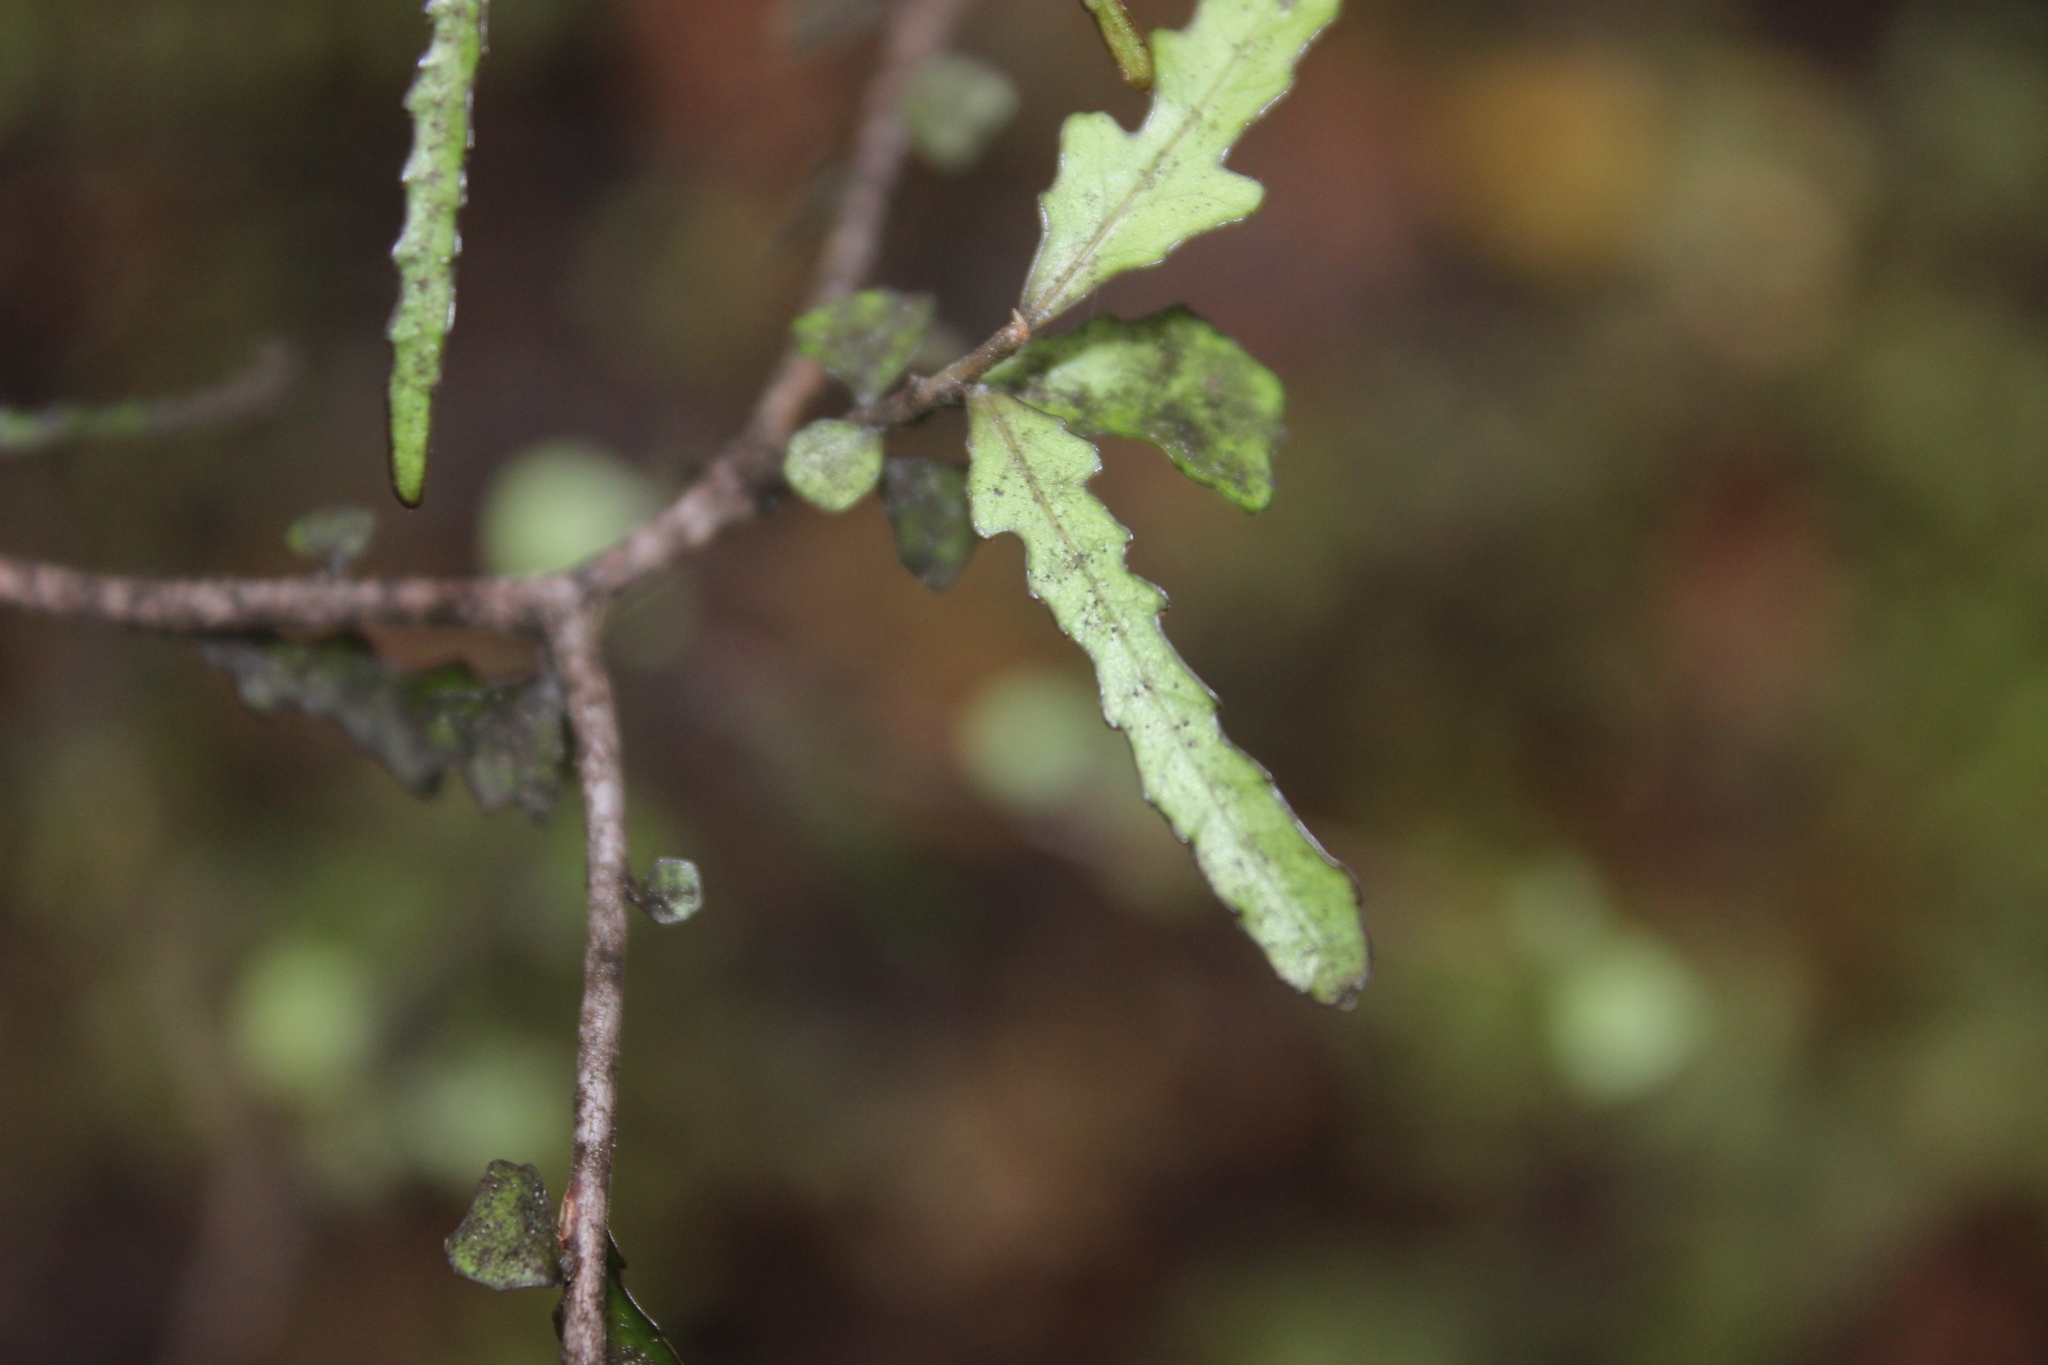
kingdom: Plantae
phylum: Tracheophyta
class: Magnoliopsida
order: Oxalidales
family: Elaeocarpaceae
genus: Elaeocarpus
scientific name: Elaeocarpus hookerianus
